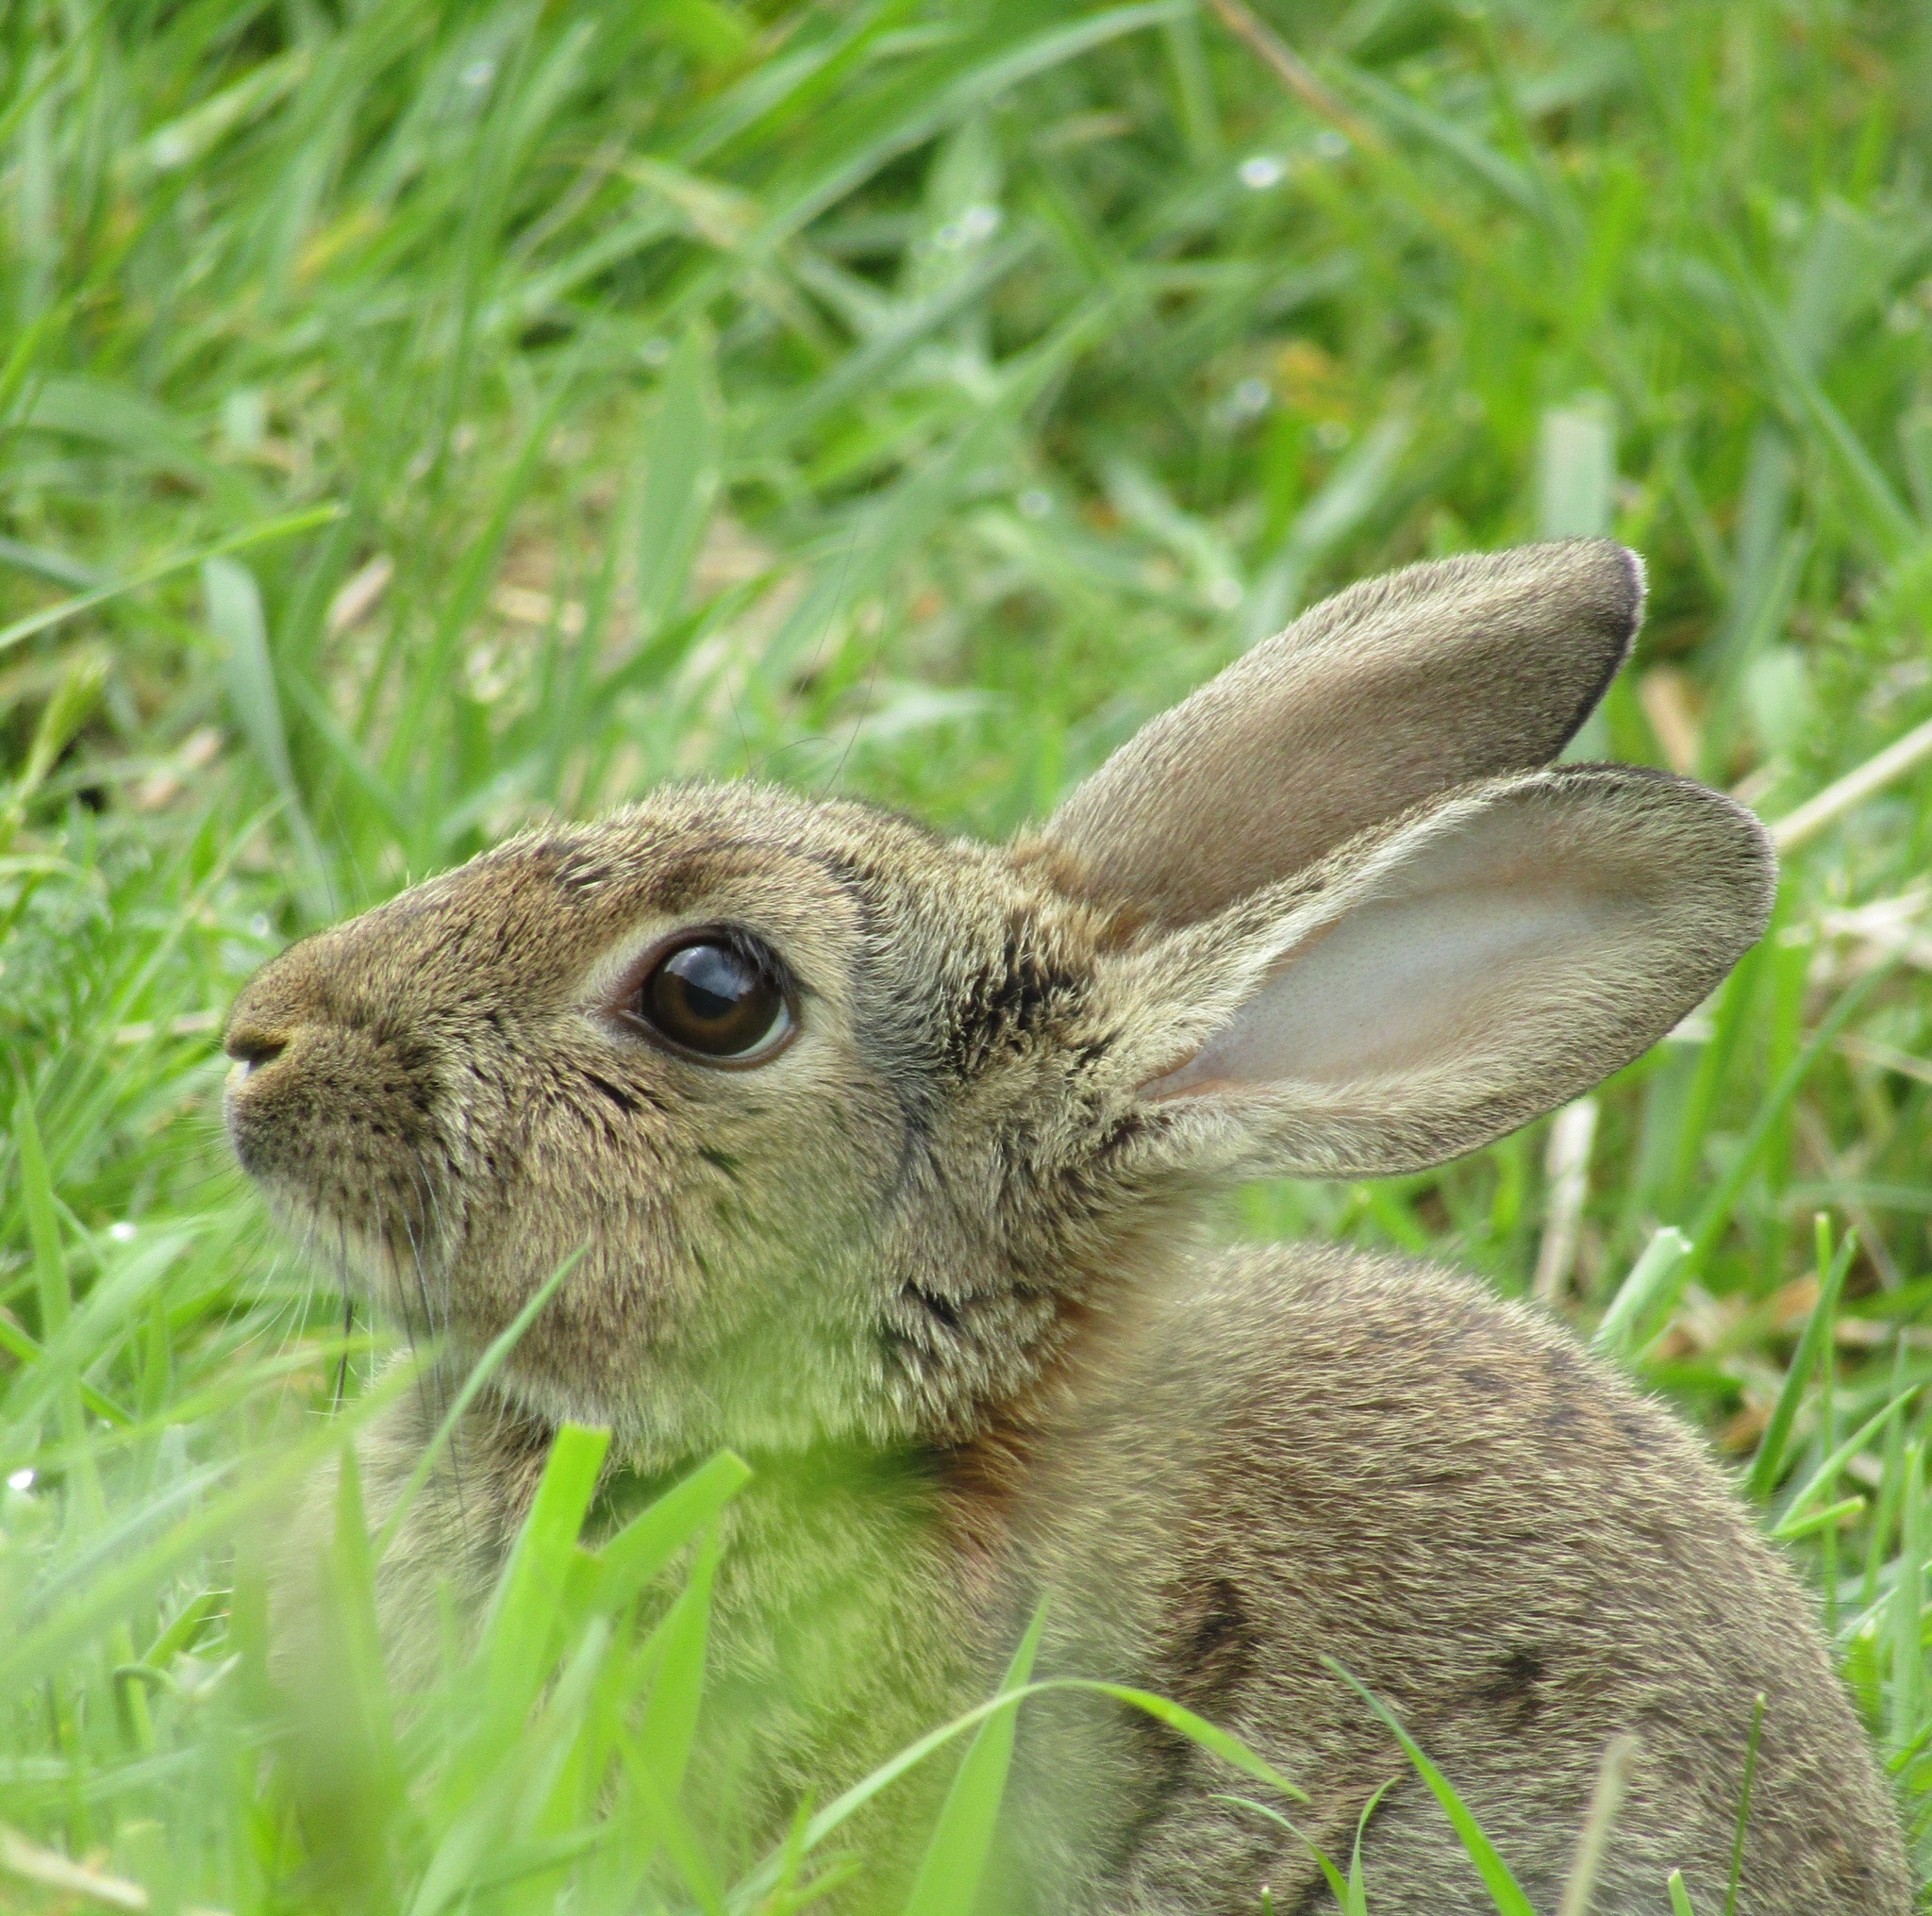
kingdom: Animalia
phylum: Chordata
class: Mammalia
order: Lagomorpha
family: Leporidae
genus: Oryctolagus
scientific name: Oryctolagus cuniculus
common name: European rabbit
